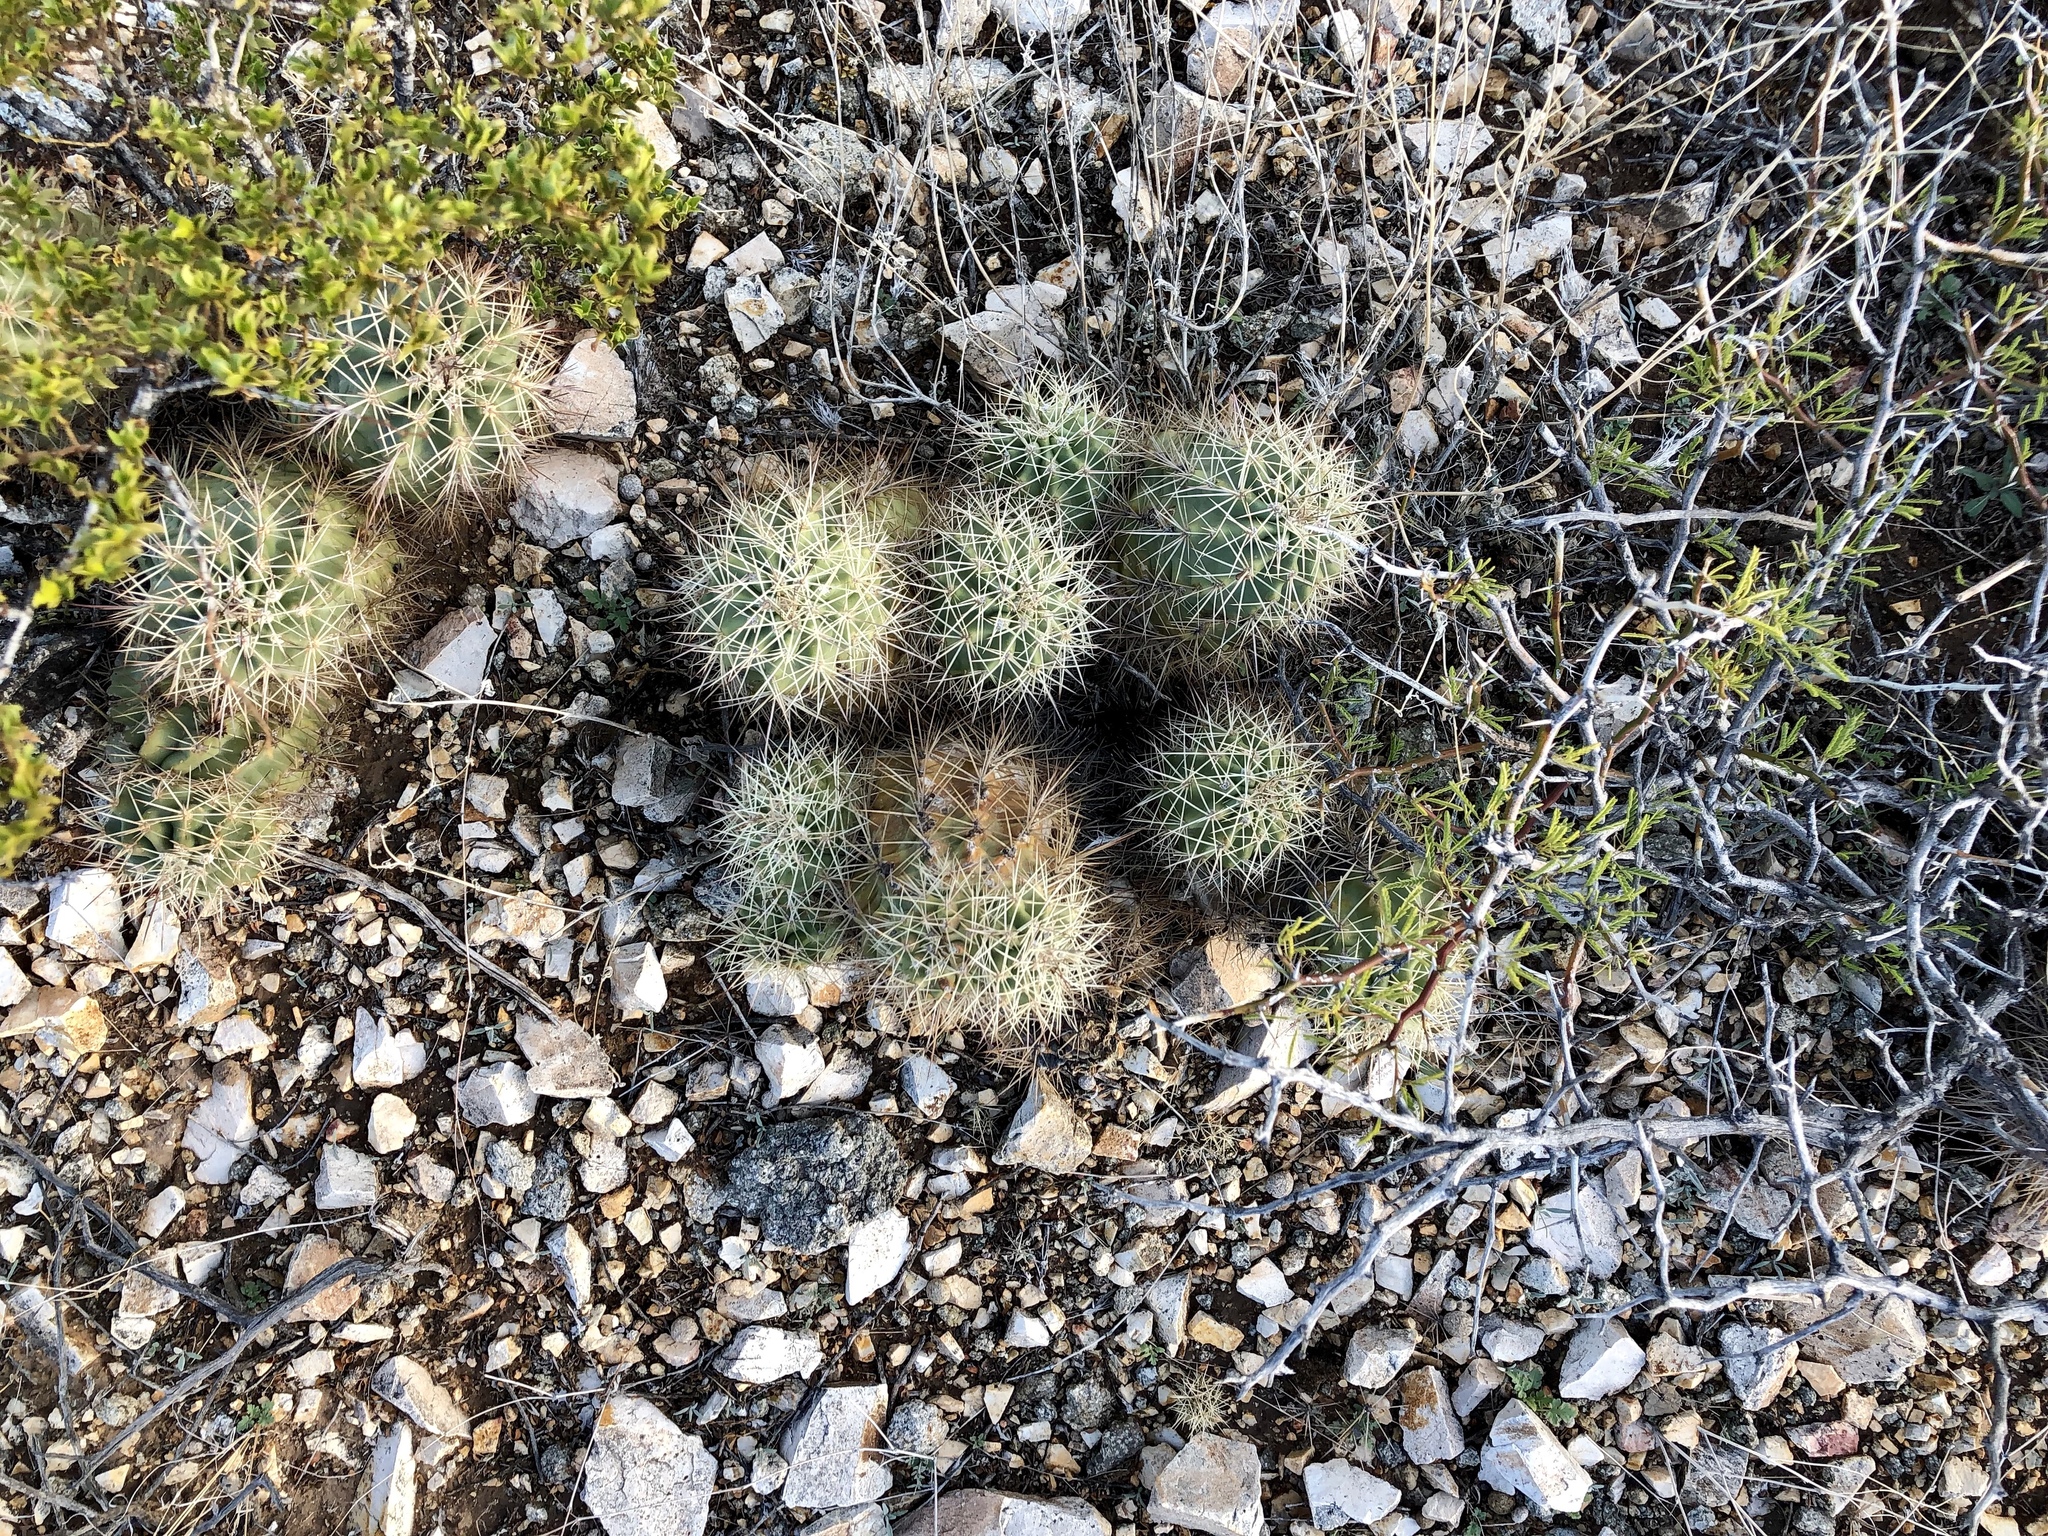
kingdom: Plantae
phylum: Tracheophyta
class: Magnoliopsida
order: Caryophyllales
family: Cactaceae
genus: Echinocereus
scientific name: Echinocereus coccineus
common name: Scarlet hedgehog cactus
